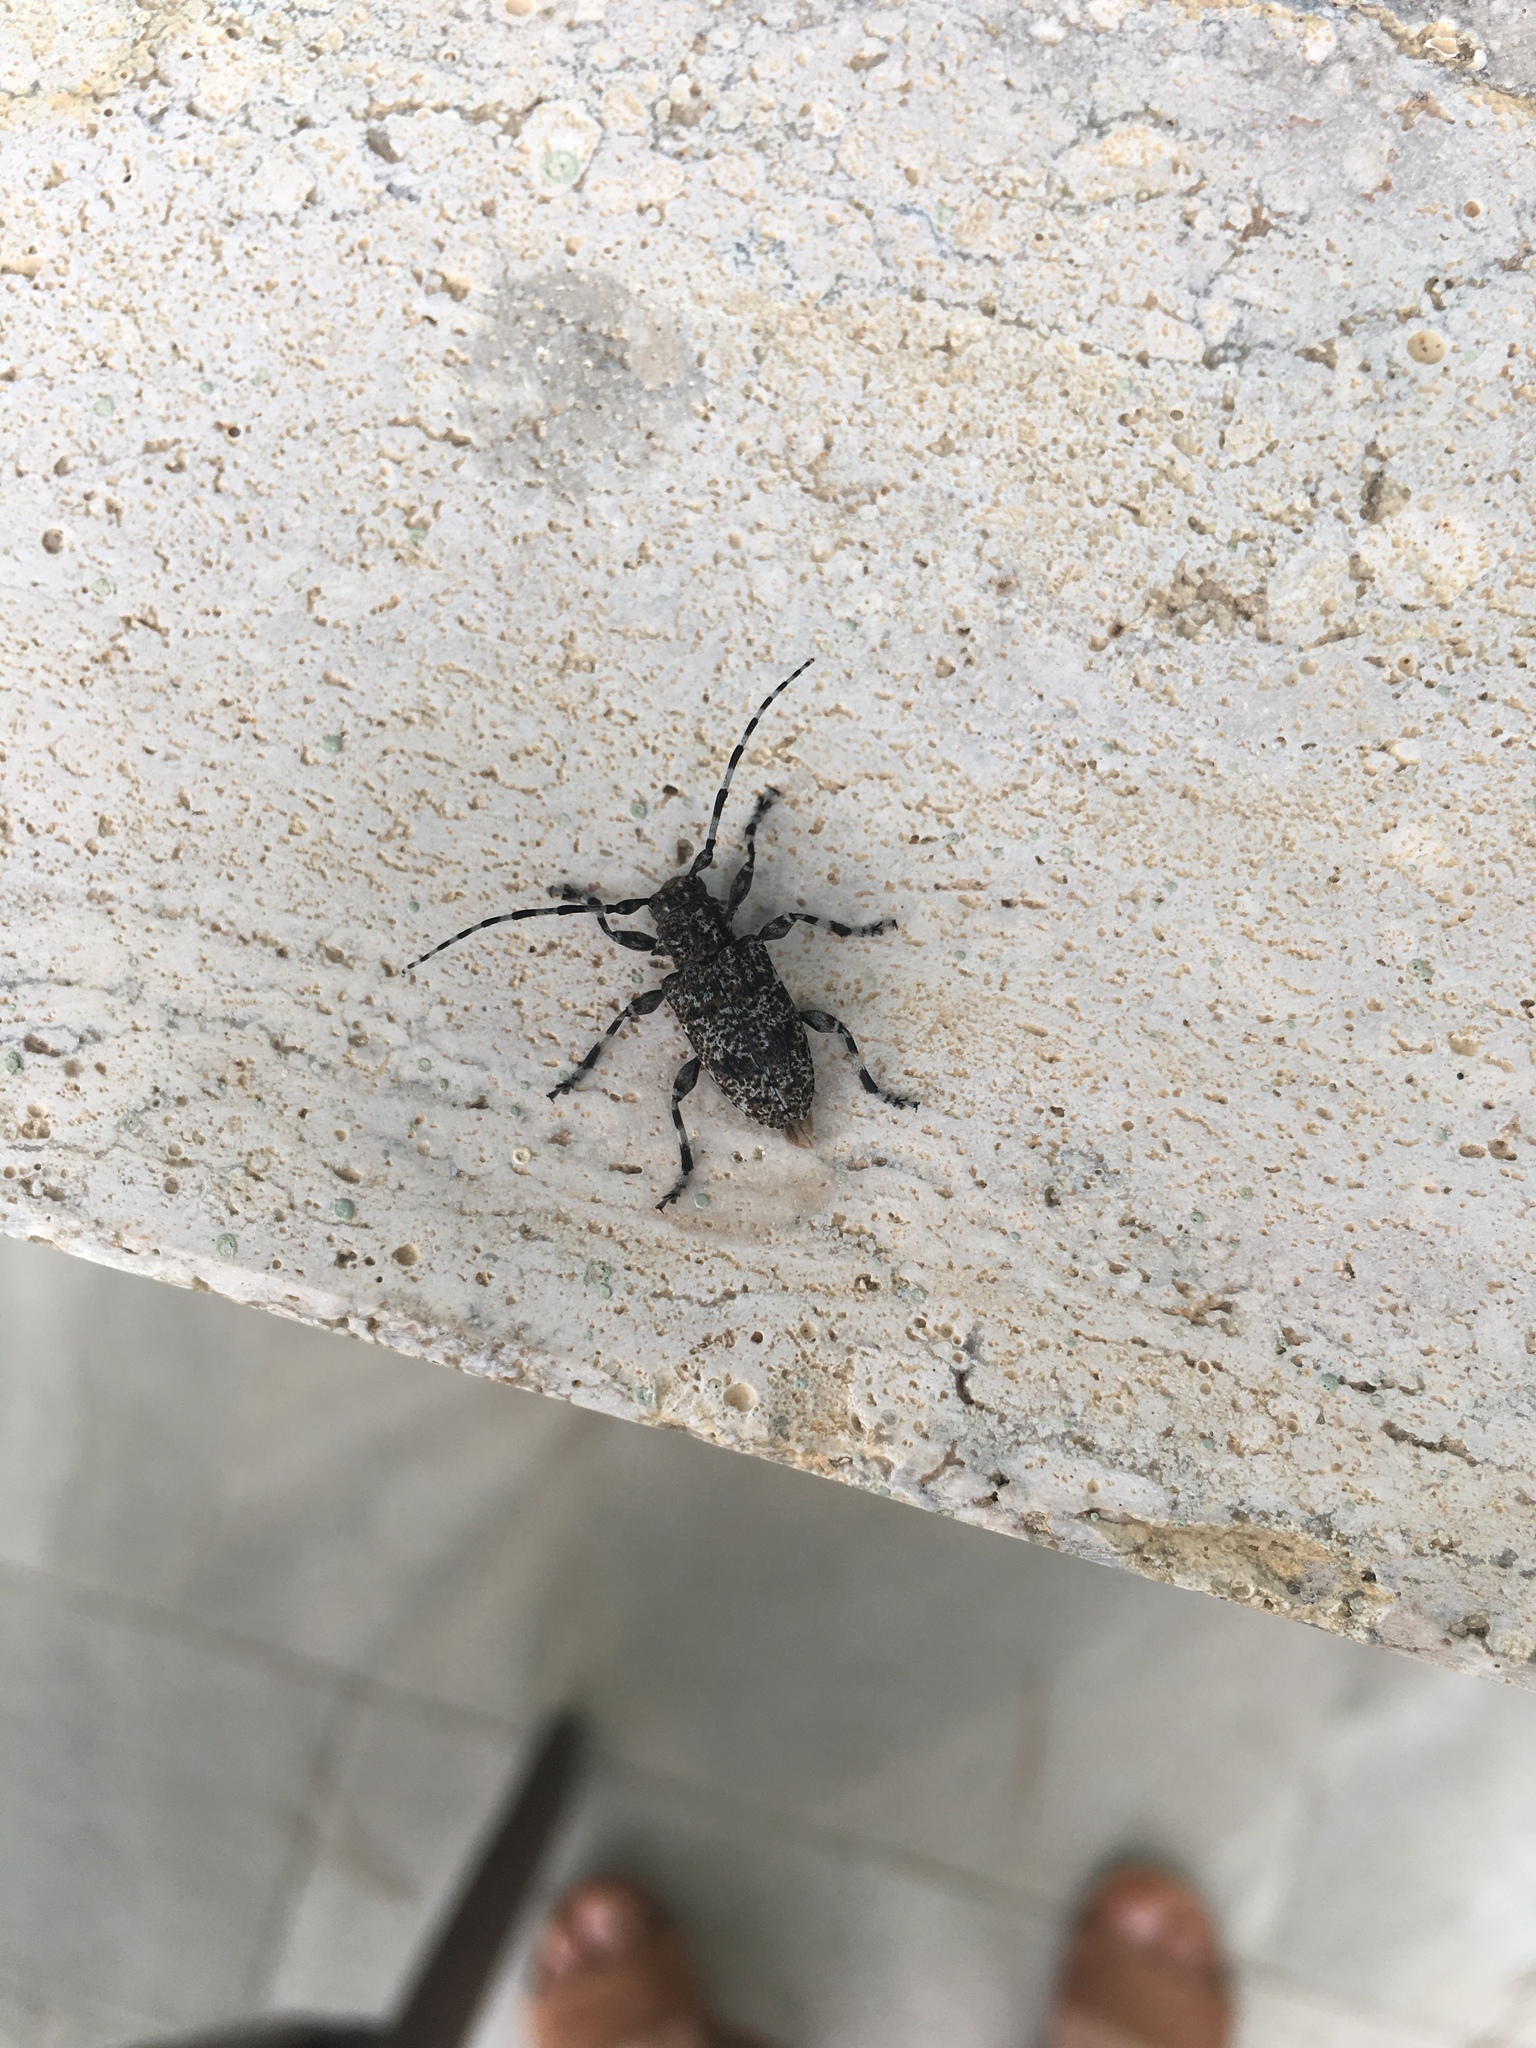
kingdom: Animalia
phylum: Arthropoda
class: Insecta
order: Coleoptera
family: Cerambycidae
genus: Aegomorphus
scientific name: Aegomorphus clavipes
